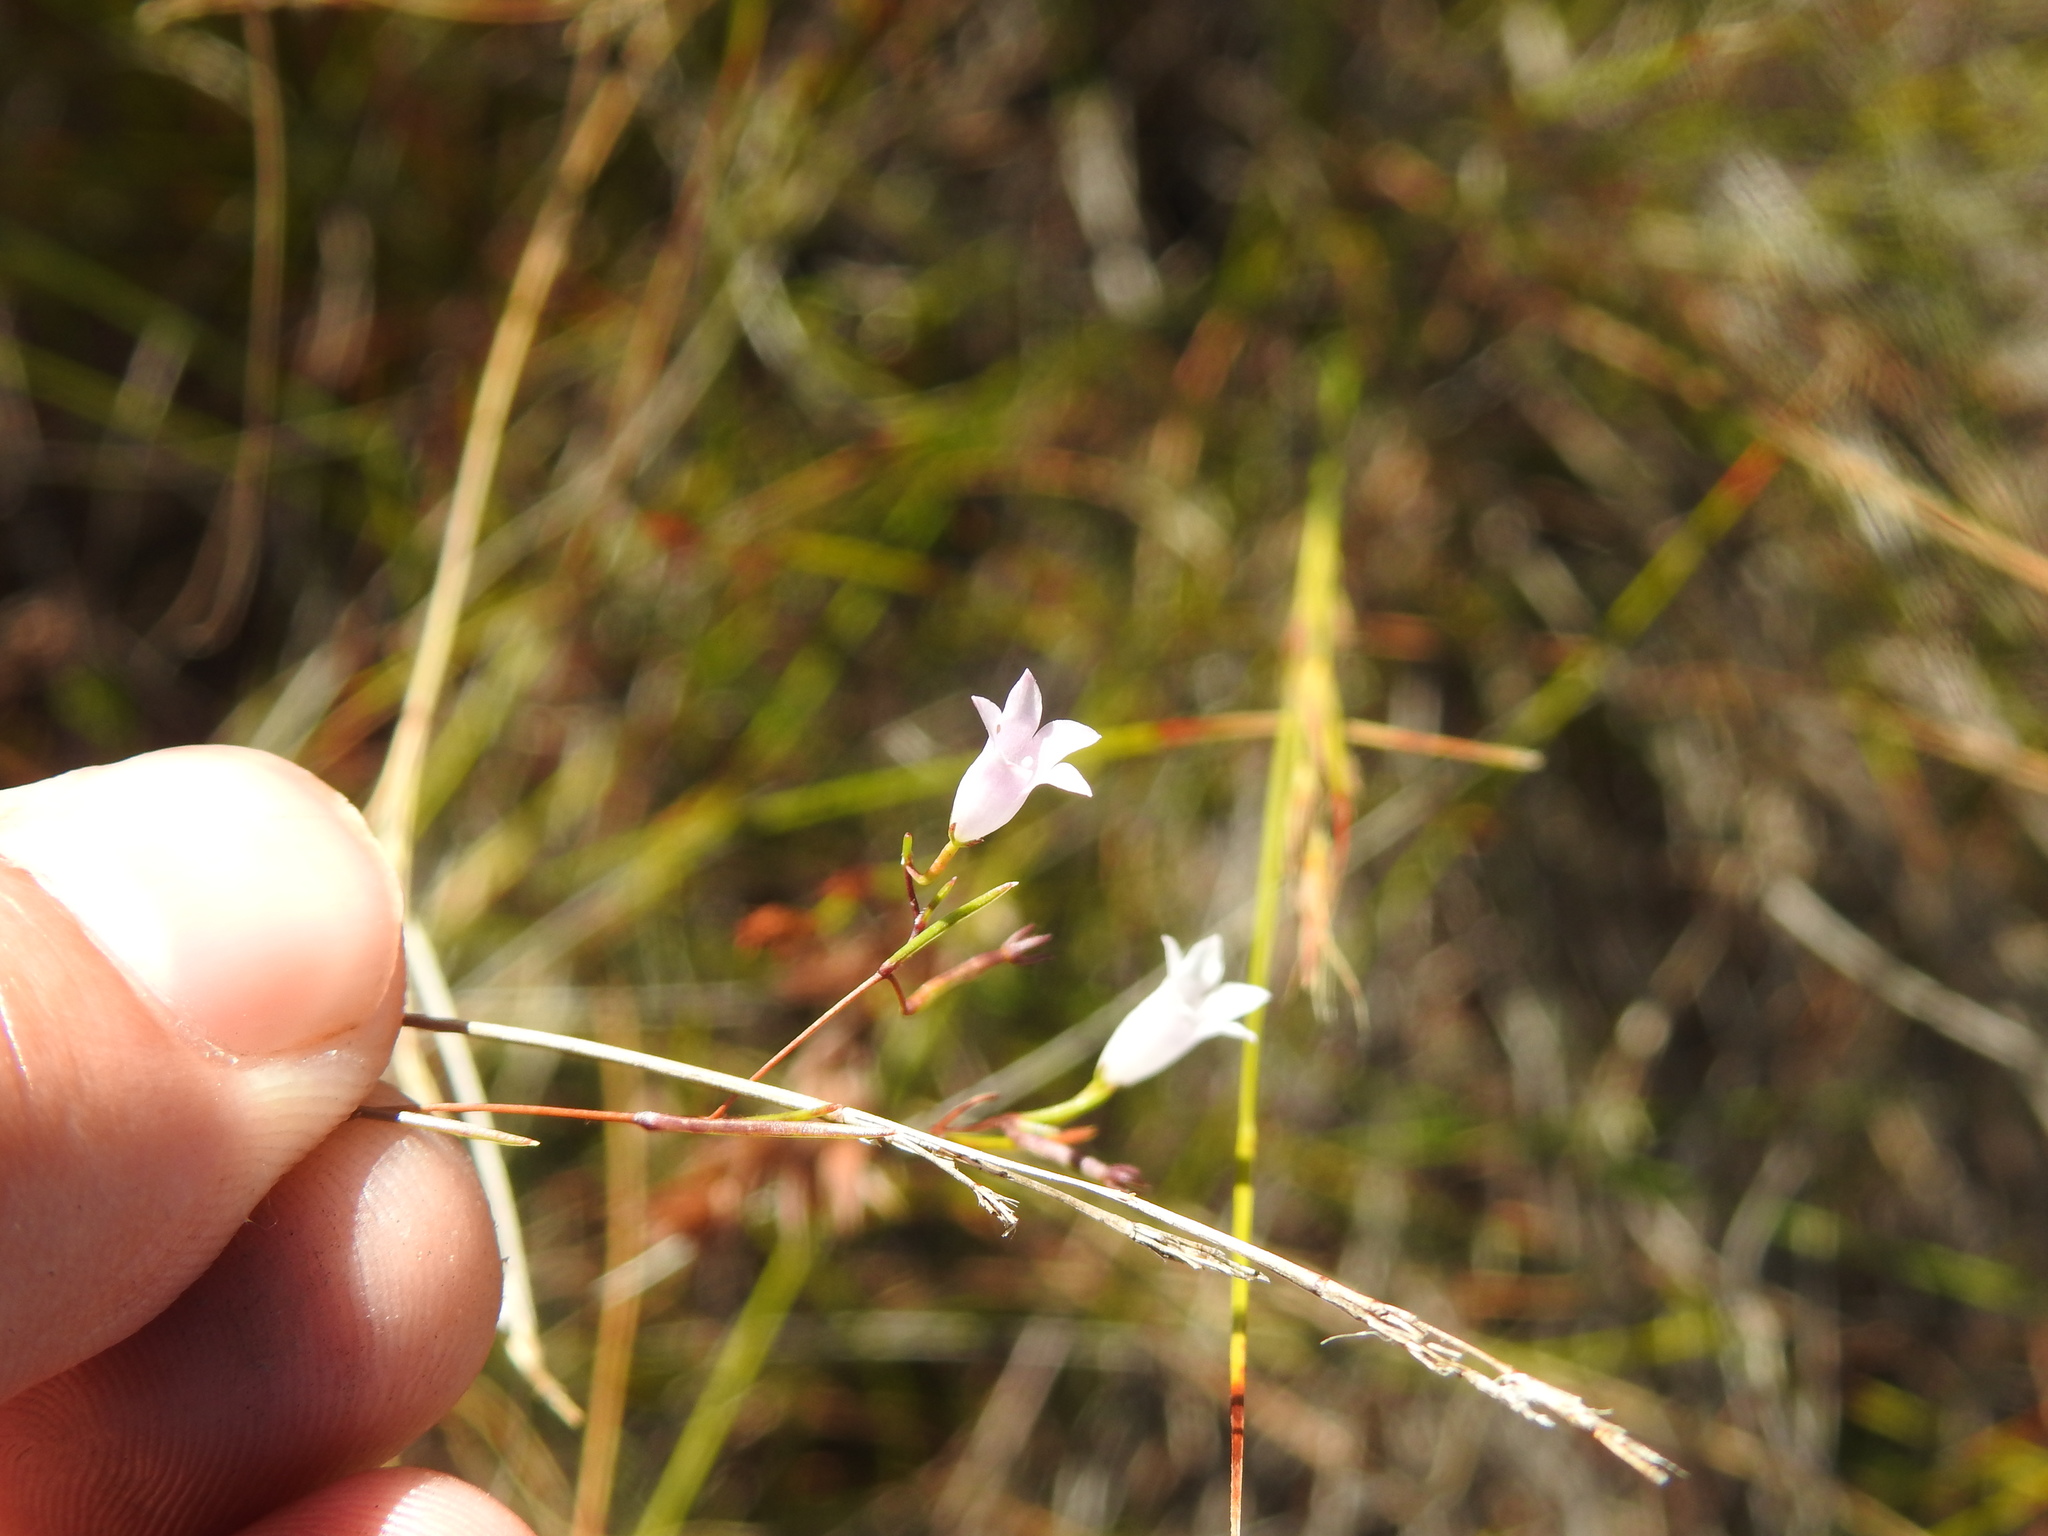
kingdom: Plantae
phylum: Tracheophyta
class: Magnoliopsida
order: Asterales
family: Campanulaceae
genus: Siphocodon
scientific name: Siphocodon debilis
